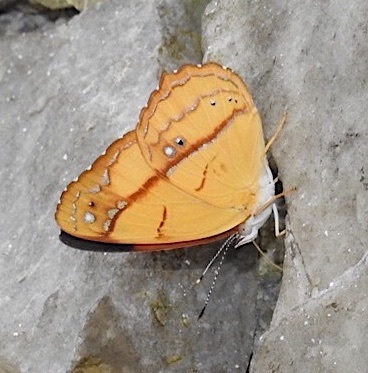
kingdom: Animalia
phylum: Arthropoda
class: Insecta
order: Lepidoptera
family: Nymphalidae
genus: Nica
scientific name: Nica flavilla
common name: Mandarin nica
